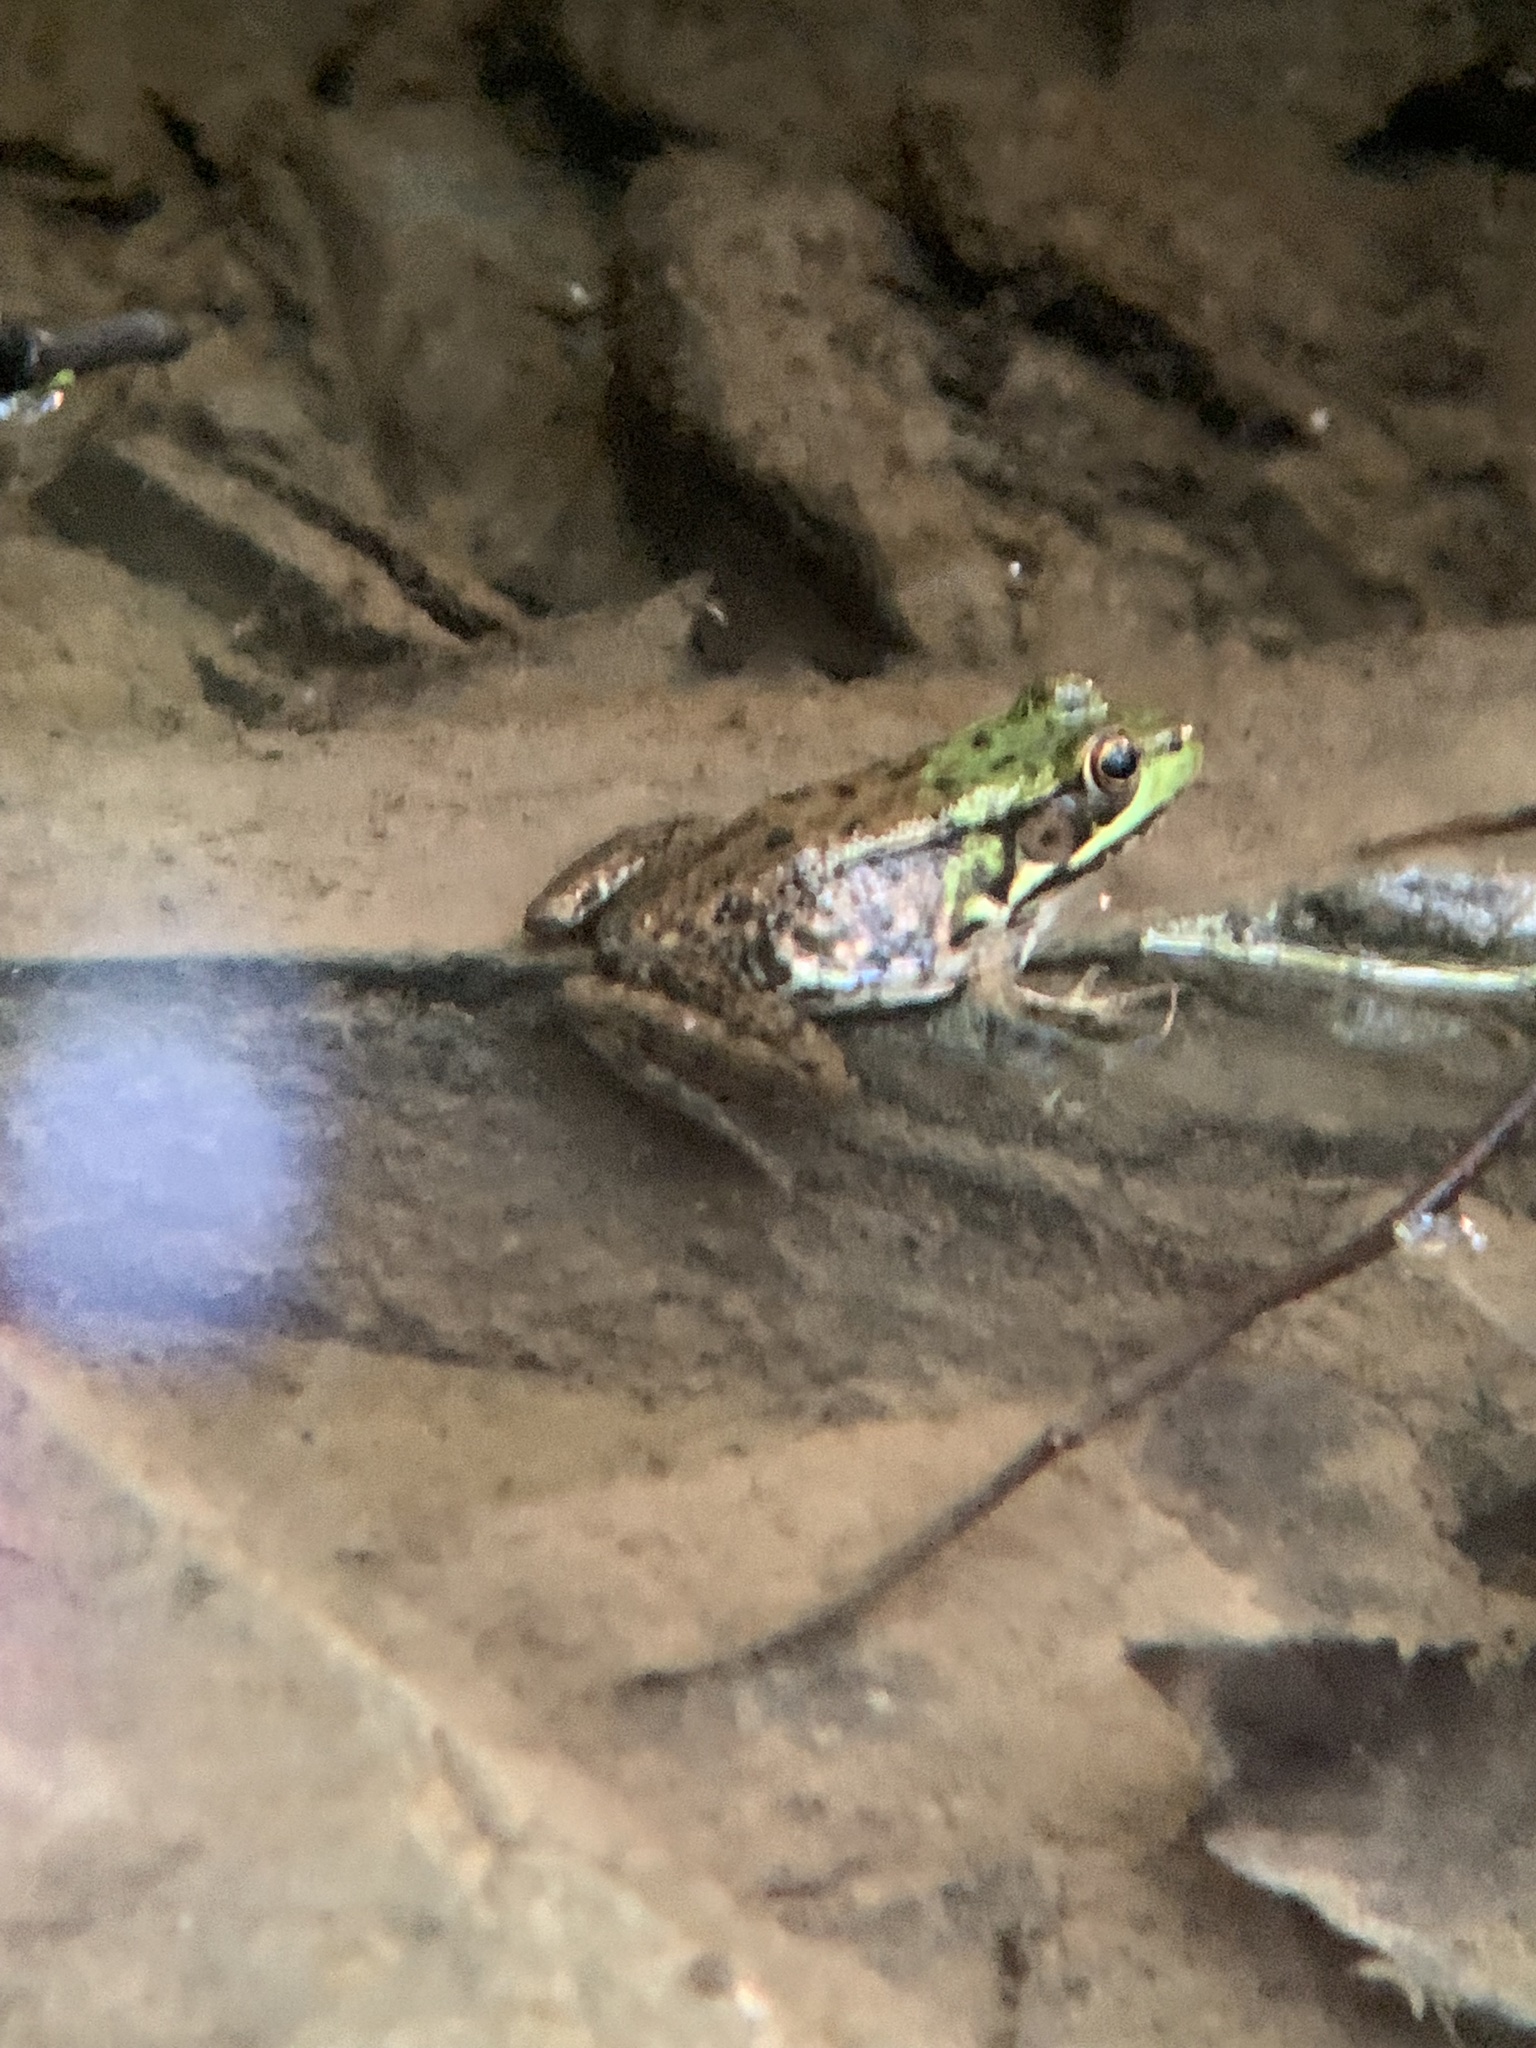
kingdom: Animalia
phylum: Chordata
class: Amphibia
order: Anura
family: Ranidae
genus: Lithobates
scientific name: Lithobates clamitans
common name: Green frog
